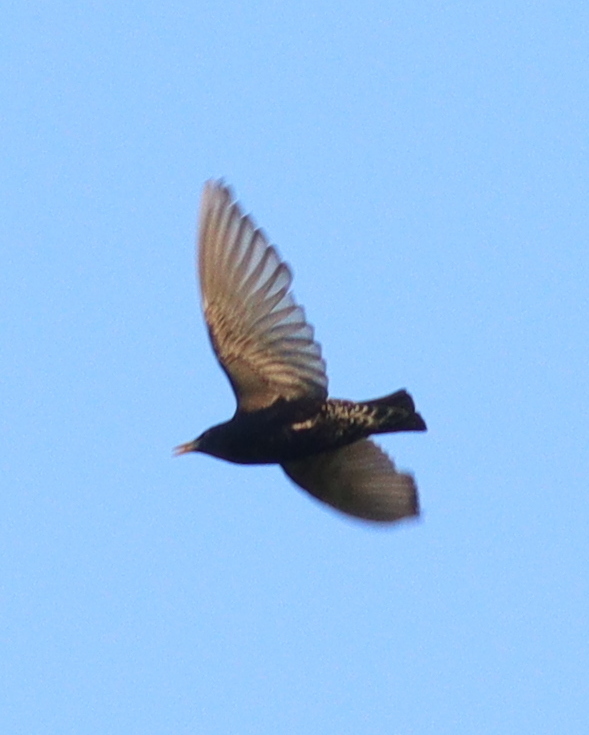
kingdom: Animalia
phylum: Chordata
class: Aves
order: Passeriformes
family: Sturnidae
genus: Sturnus
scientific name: Sturnus vulgaris
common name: Common starling
